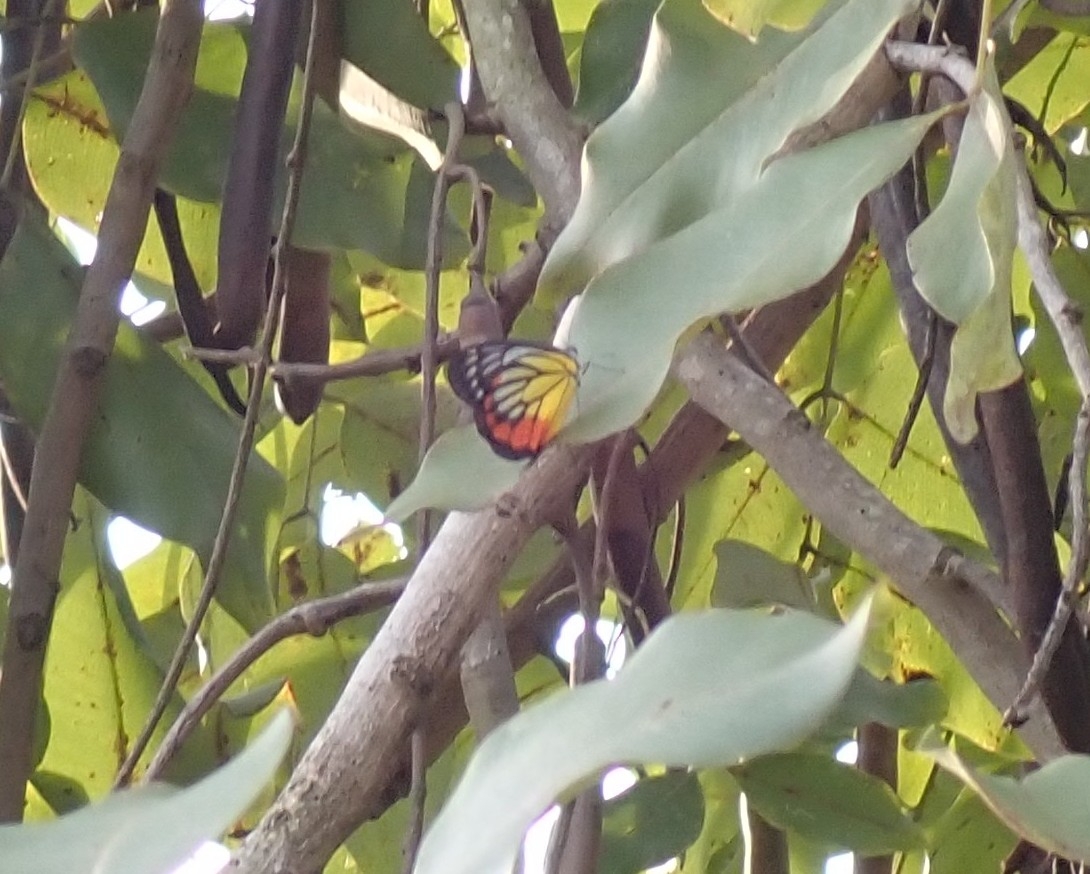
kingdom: Animalia
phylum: Arthropoda
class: Insecta
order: Lepidoptera
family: Pieridae
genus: Delias
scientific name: Delias hyparete
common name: Painted jezebel
